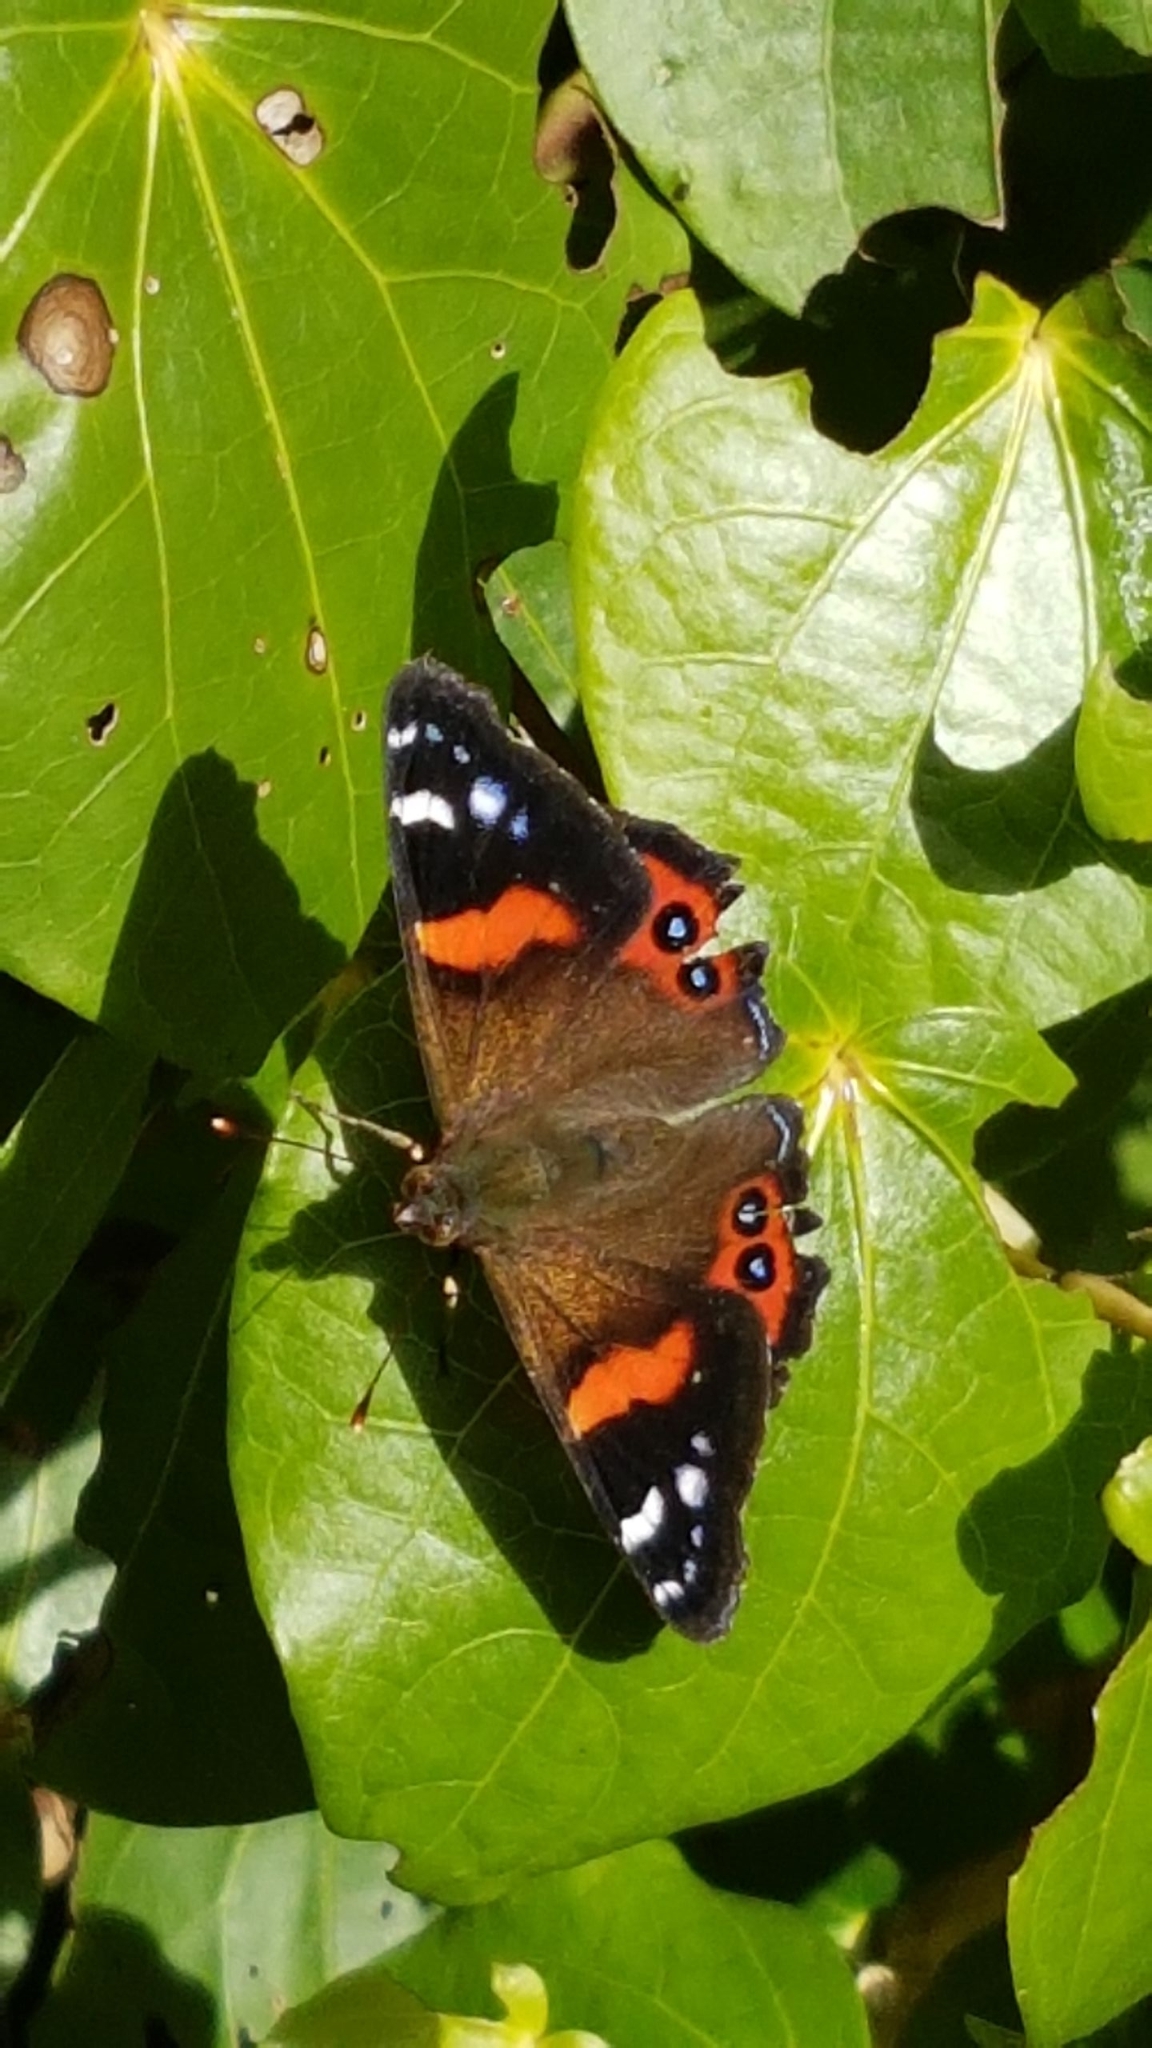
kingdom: Animalia
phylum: Arthropoda
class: Insecta
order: Lepidoptera
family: Nymphalidae
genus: Vanessa
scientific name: Vanessa gonerilla
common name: New zealand red admiral
